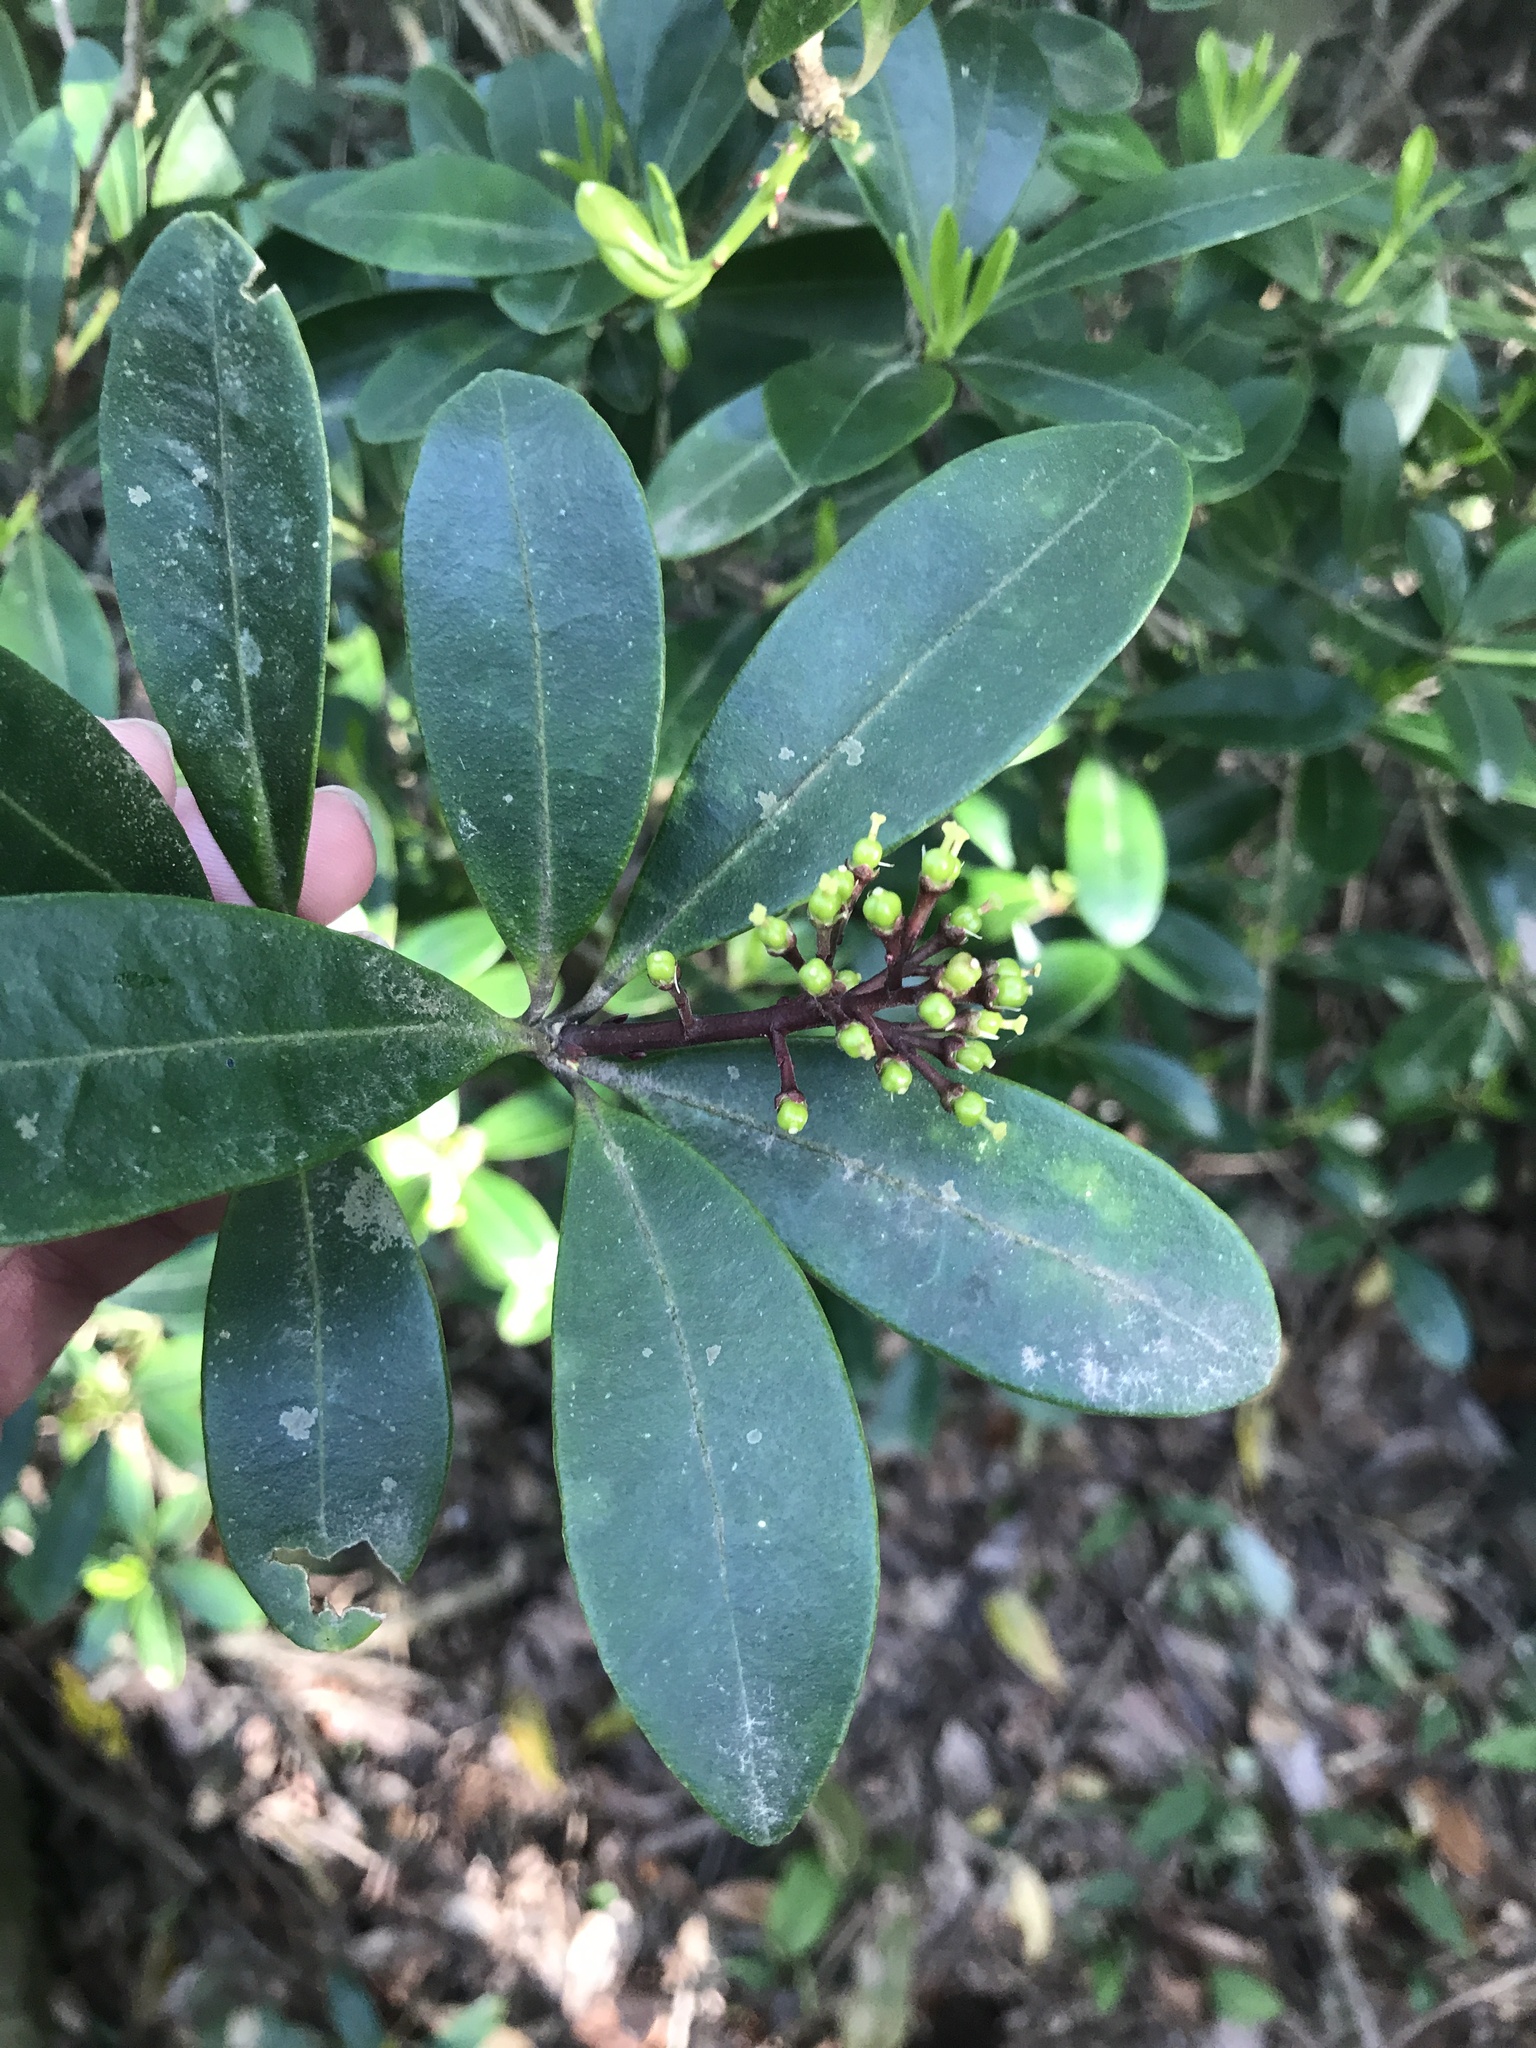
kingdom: Plantae
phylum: Tracheophyta
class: Magnoliopsida
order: Sapindales
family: Rutaceae
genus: Skimmia
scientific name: Skimmia japonica
